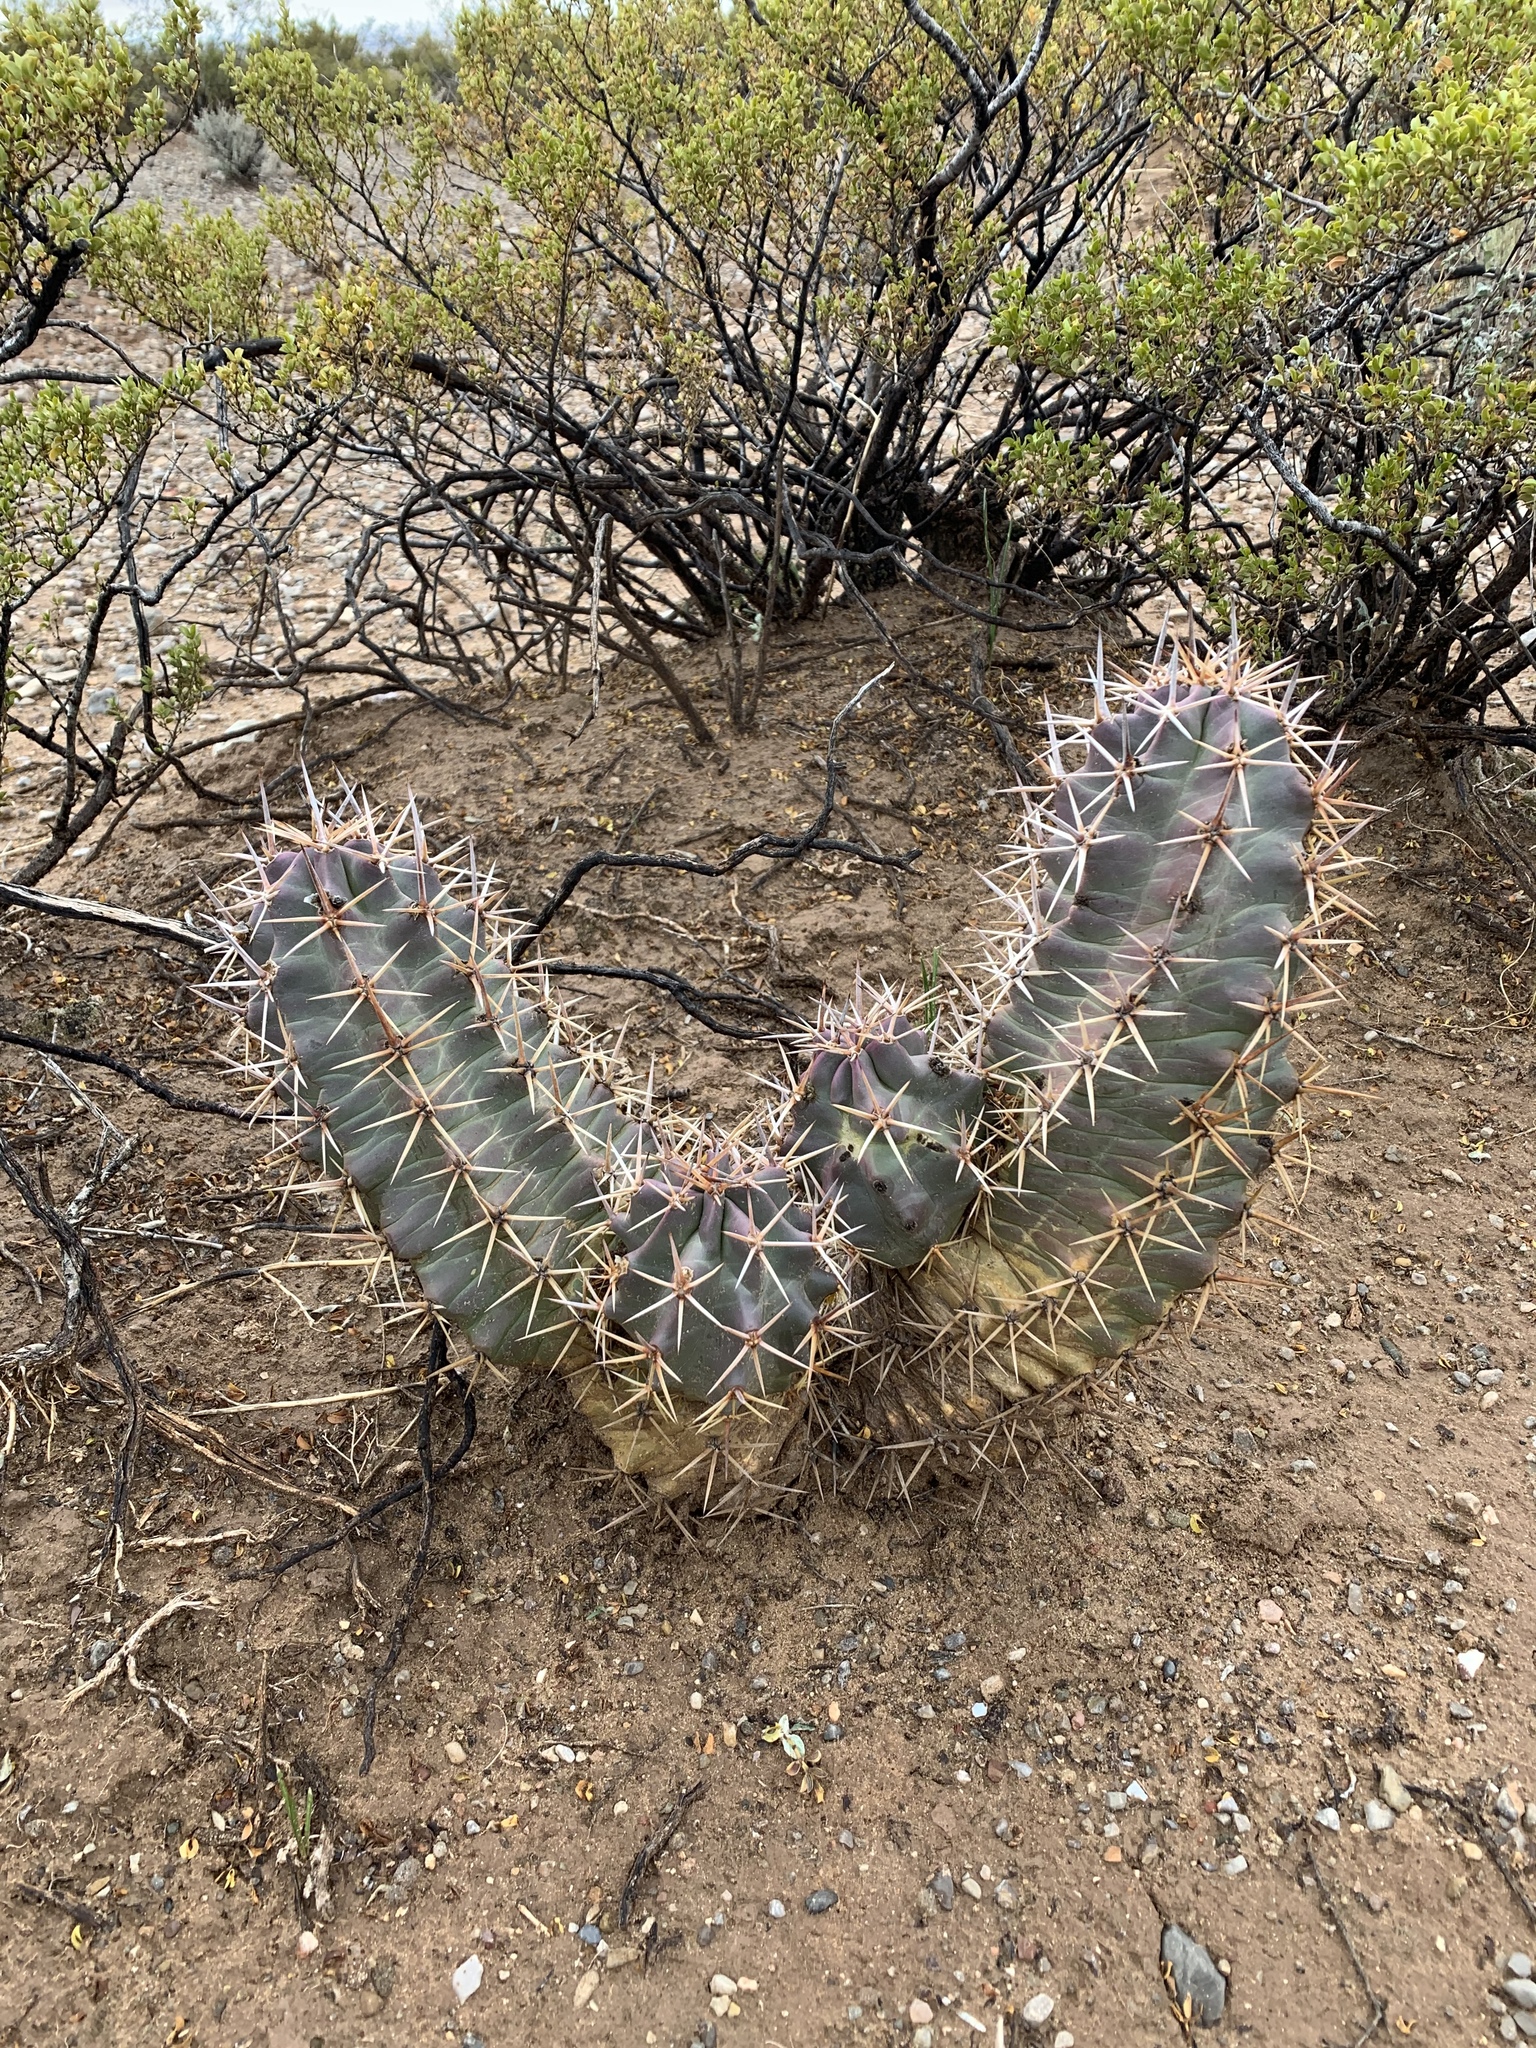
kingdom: Plantae
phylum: Tracheophyta
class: Magnoliopsida
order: Caryophyllales
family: Cactaceae
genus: Echinocereus
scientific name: Echinocereus triglochidiatus
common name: Claretcup hedgehog
